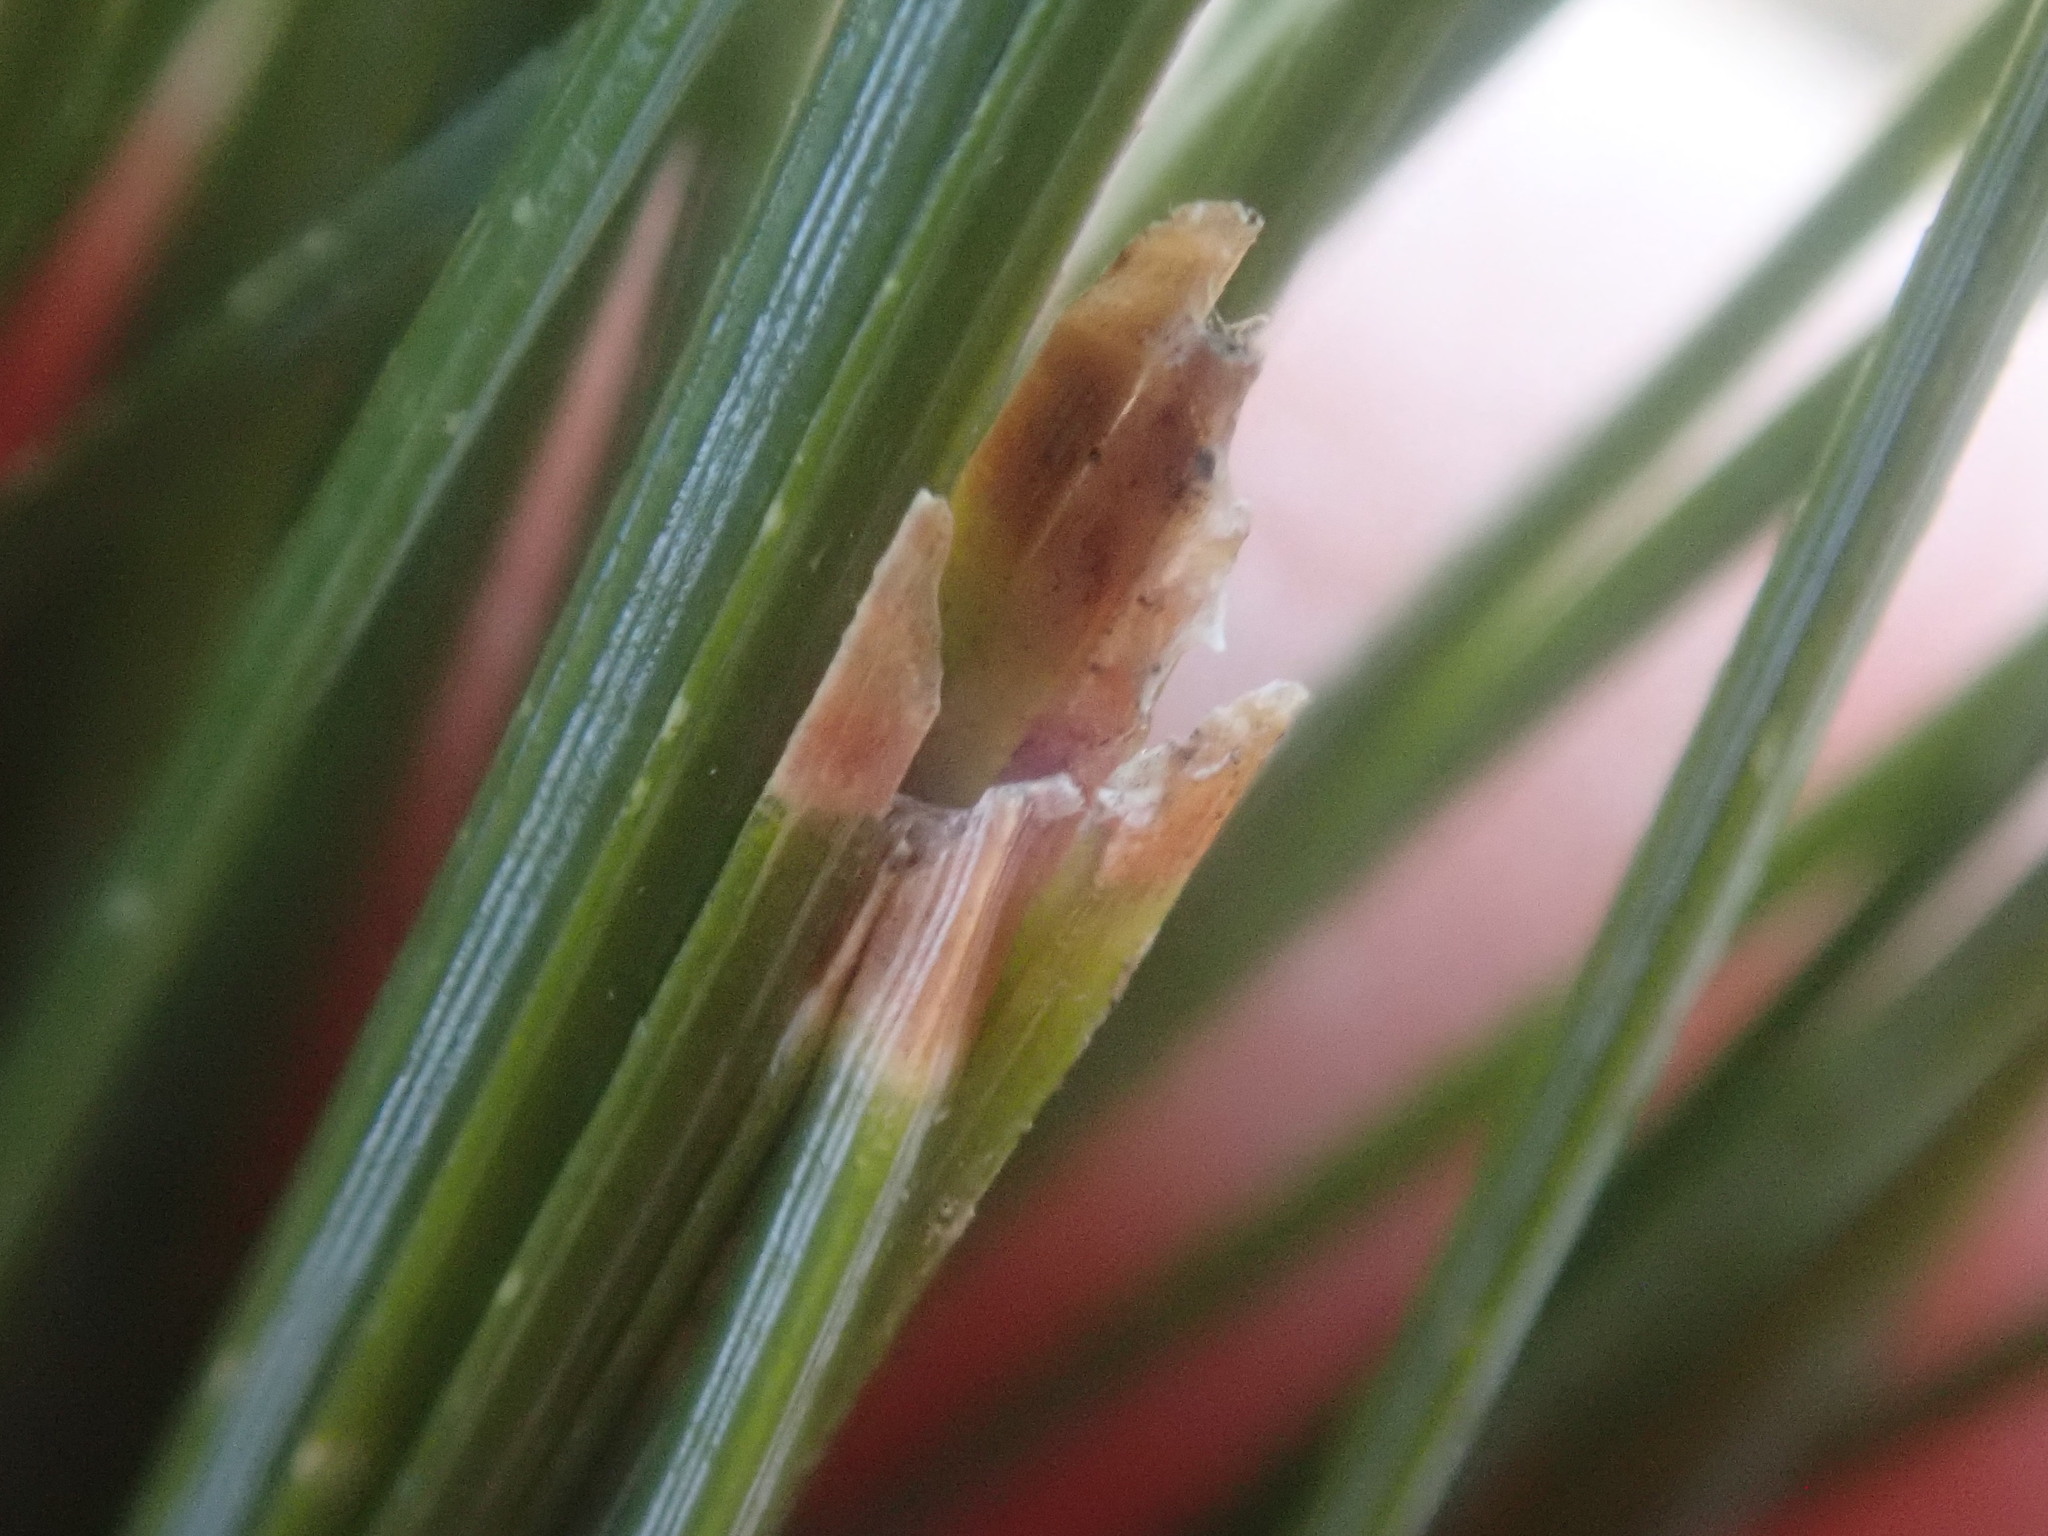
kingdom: Animalia
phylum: Arthropoda
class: Insecta
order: Lepidoptera
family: Tortricidae
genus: Argyrotaenia
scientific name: Argyrotaenia pinatubana
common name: Pine tube moth
